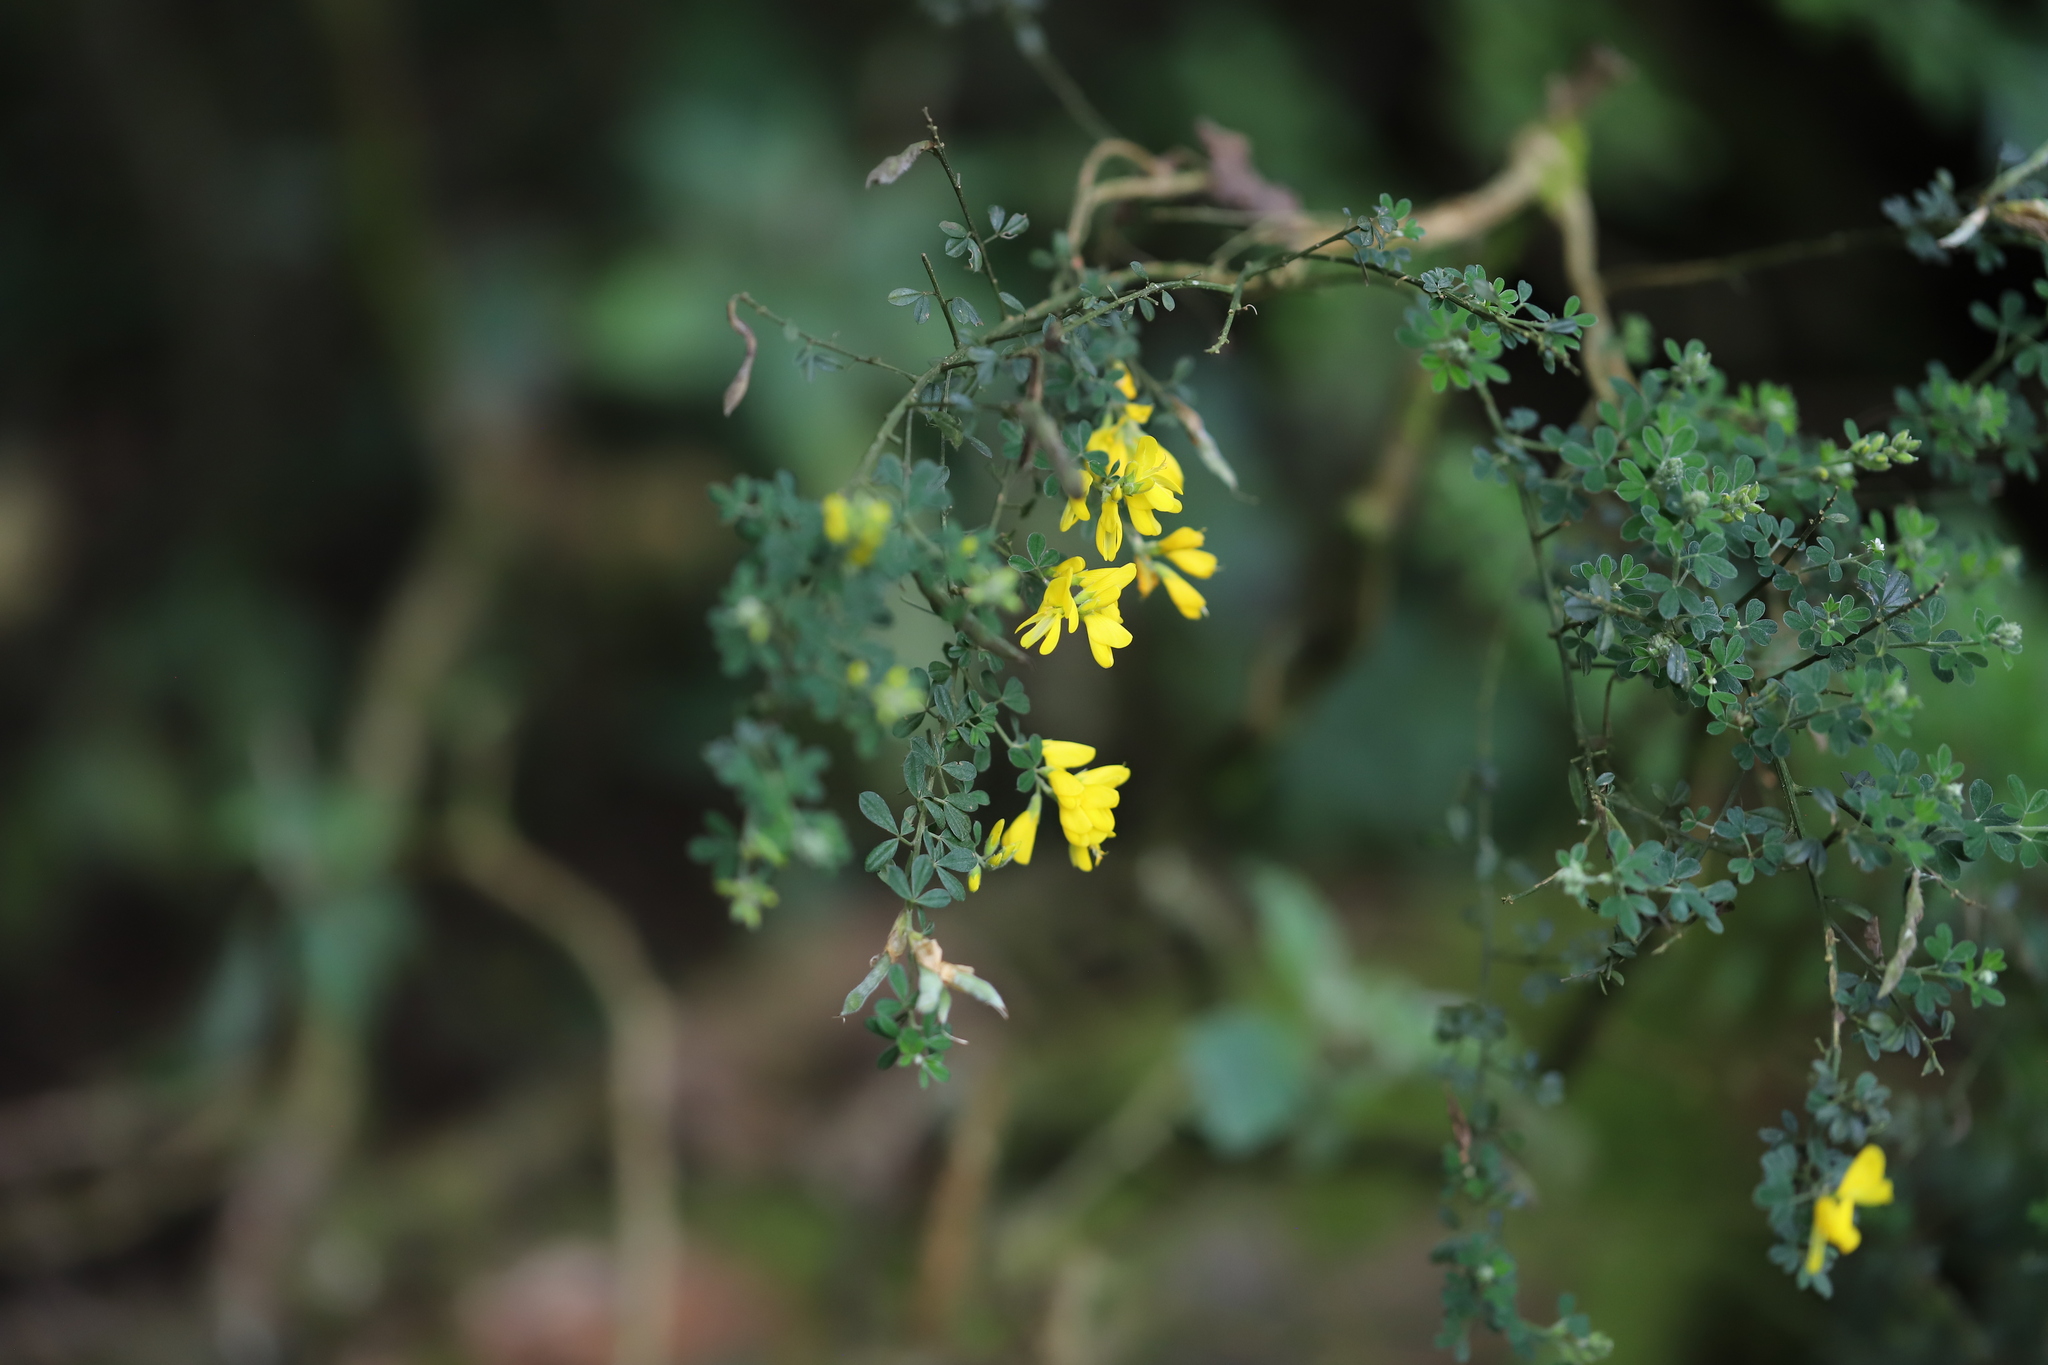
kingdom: Plantae
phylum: Tracheophyta
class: Magnoliopsida
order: Fabales
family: Fabaceae
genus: Genista
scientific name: Genista monspessulana
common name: Montpellier broom
